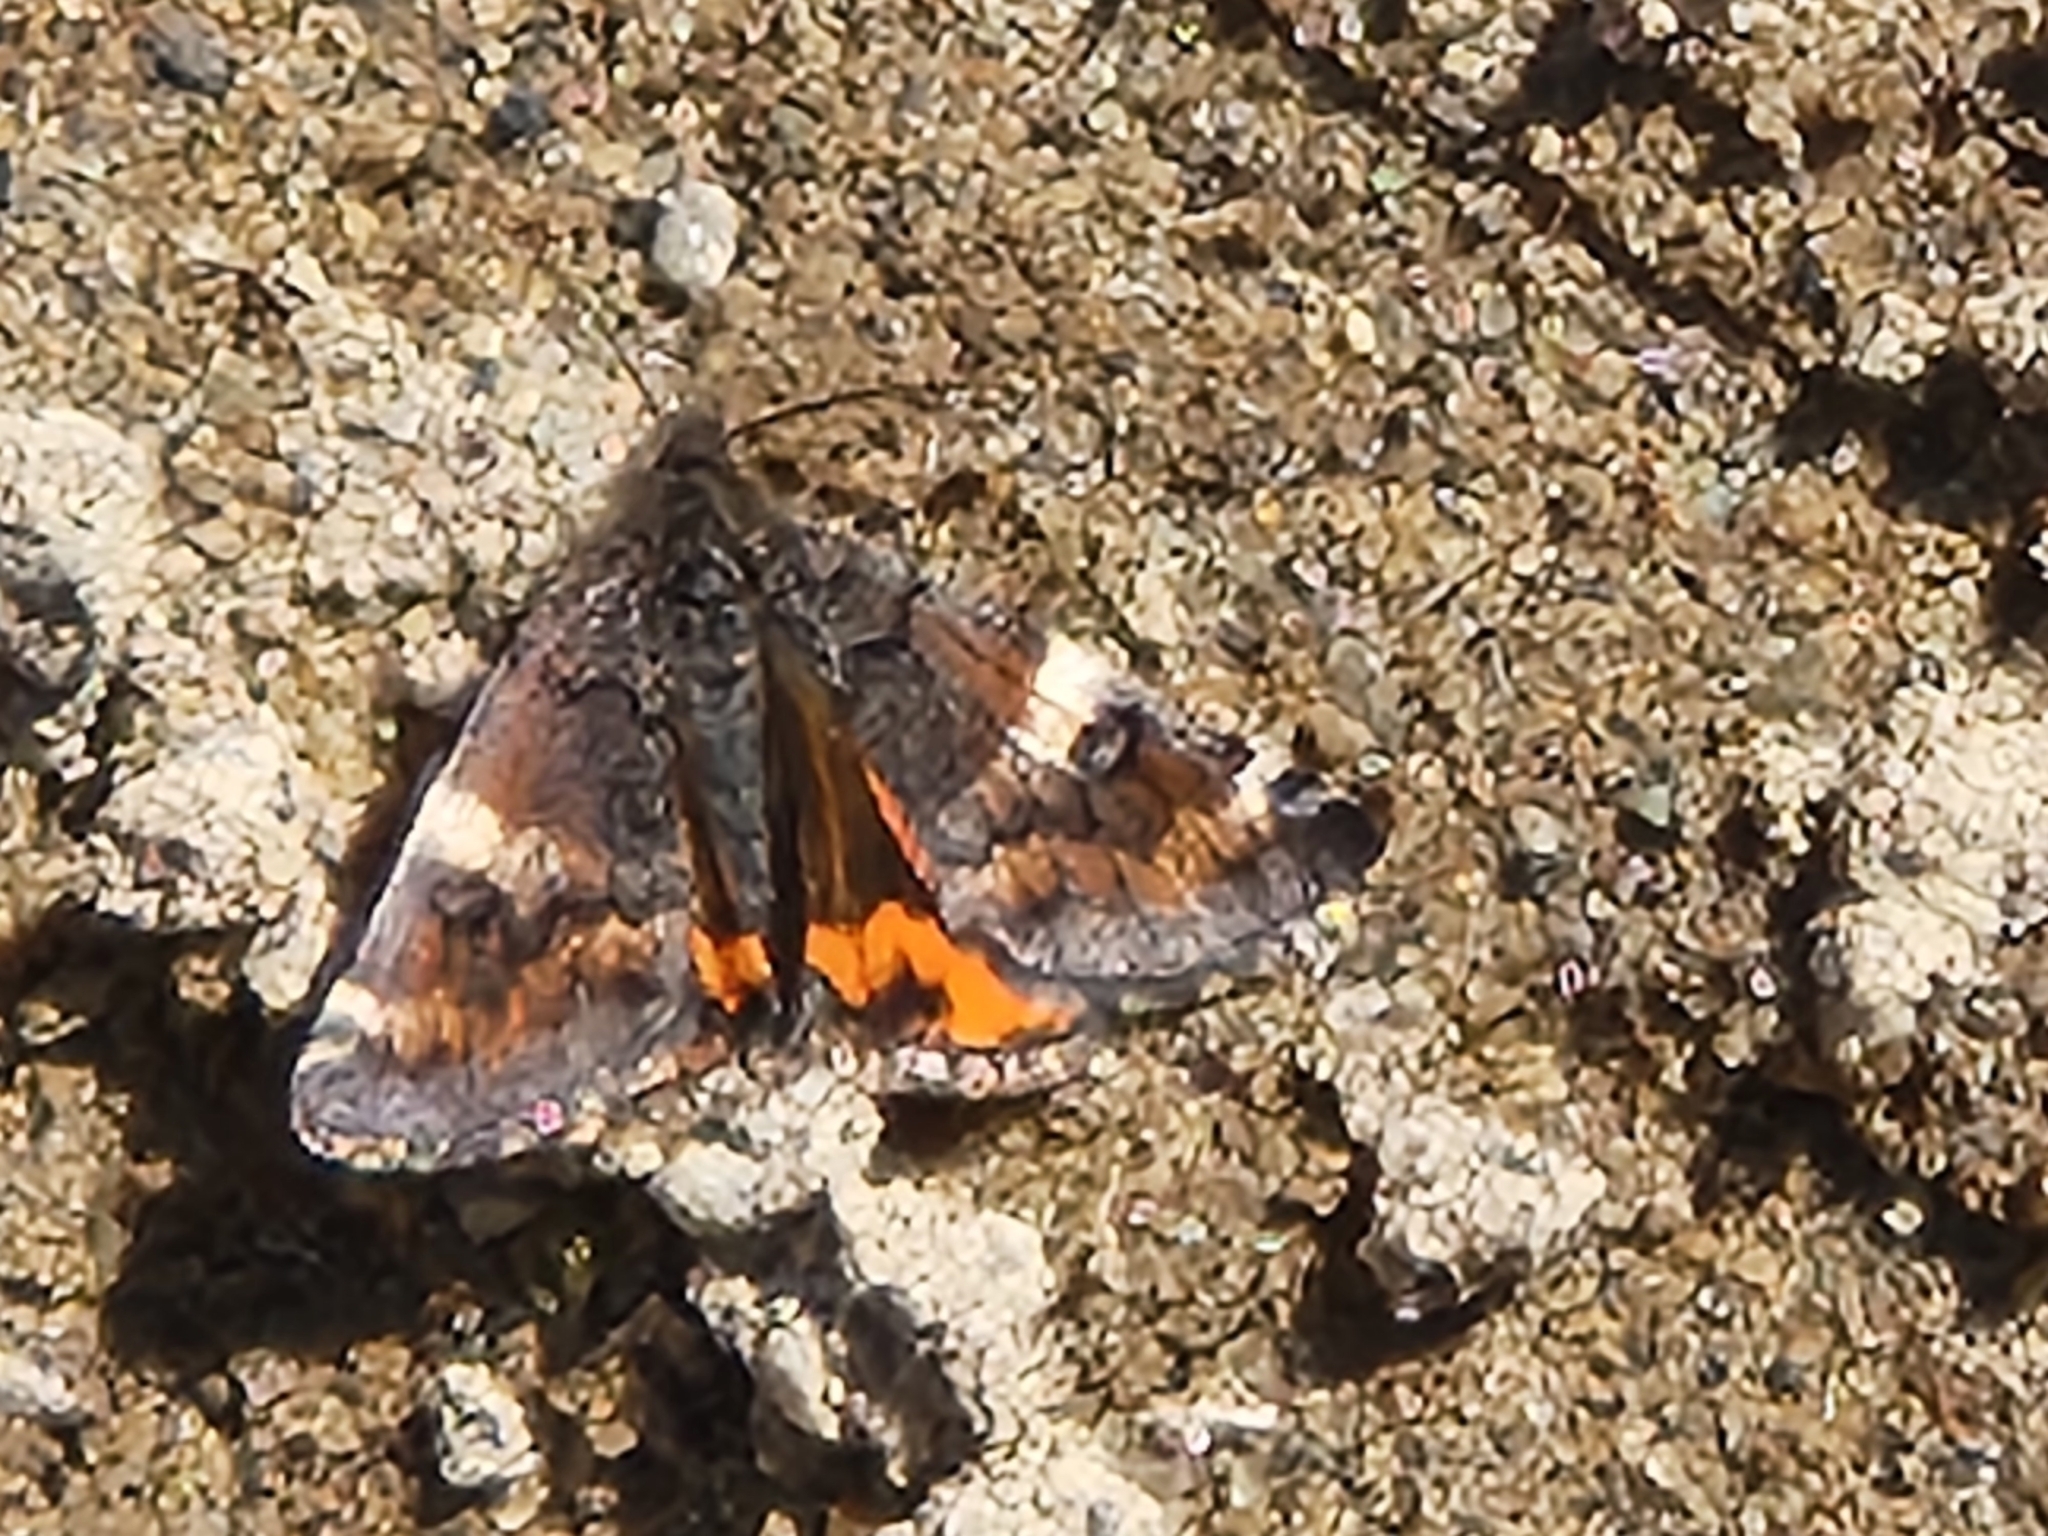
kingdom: Animalia
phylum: Arthropoda
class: Insecta
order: Lepidoptera
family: Geometridae
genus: Archiearis
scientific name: Archiearis infans
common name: First born geometer
